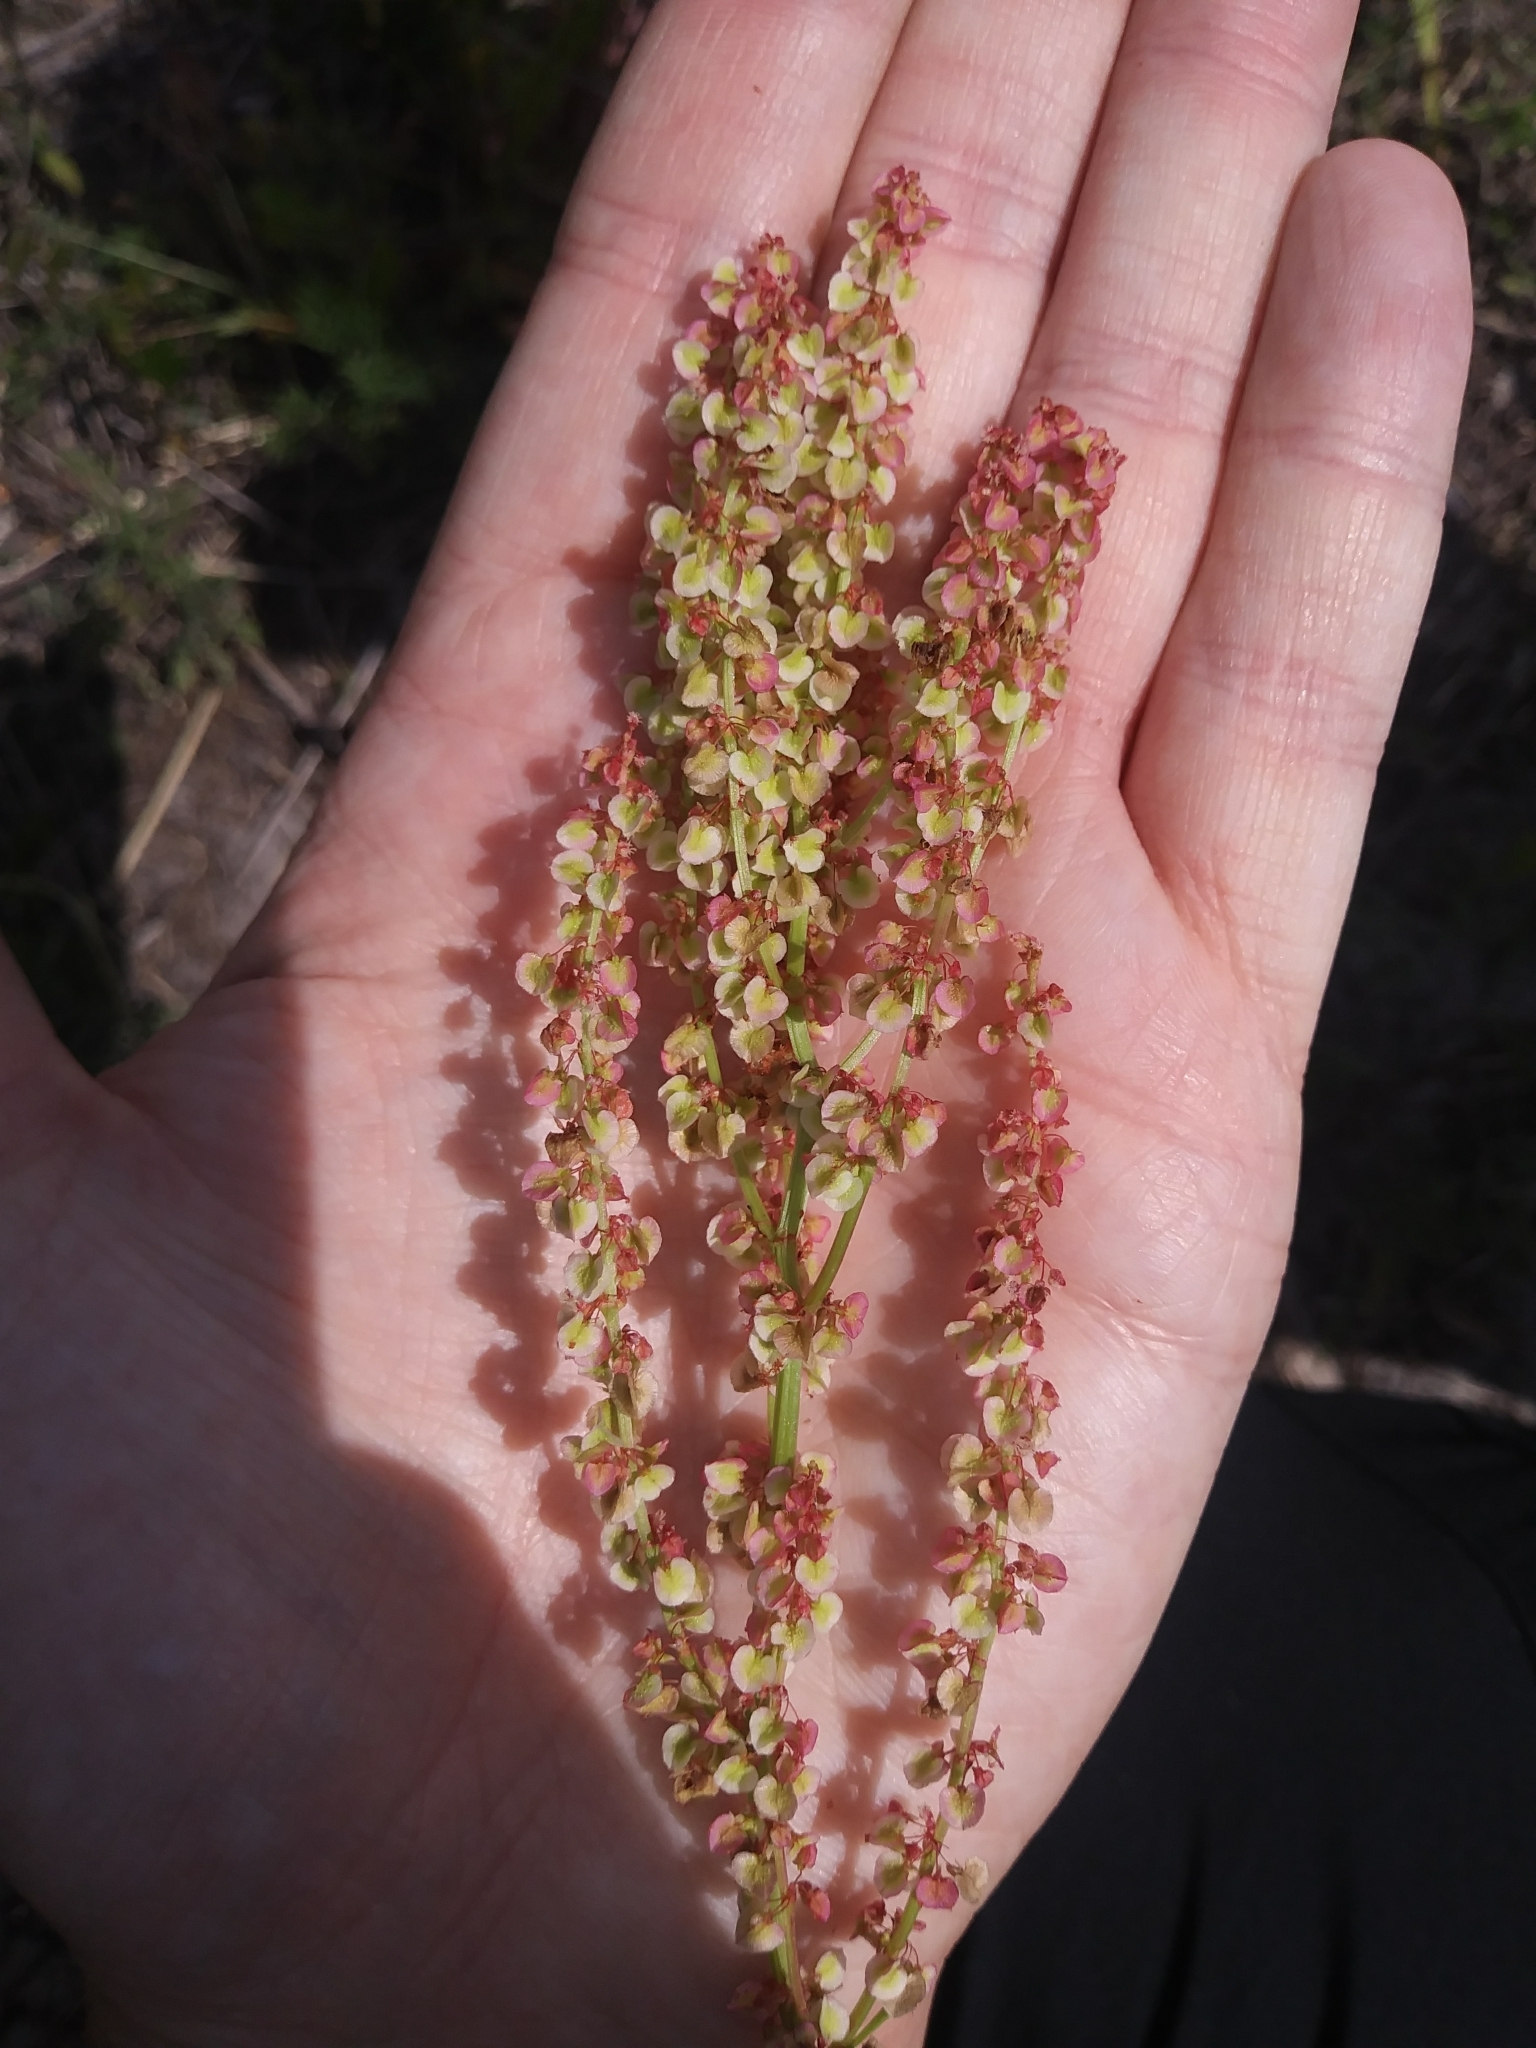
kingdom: Plantae
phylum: Tracheophyta
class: Magnoliopsida
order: Caryophyllales
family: Polygonaceae
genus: Rumex
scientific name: Rumex hastatulus
